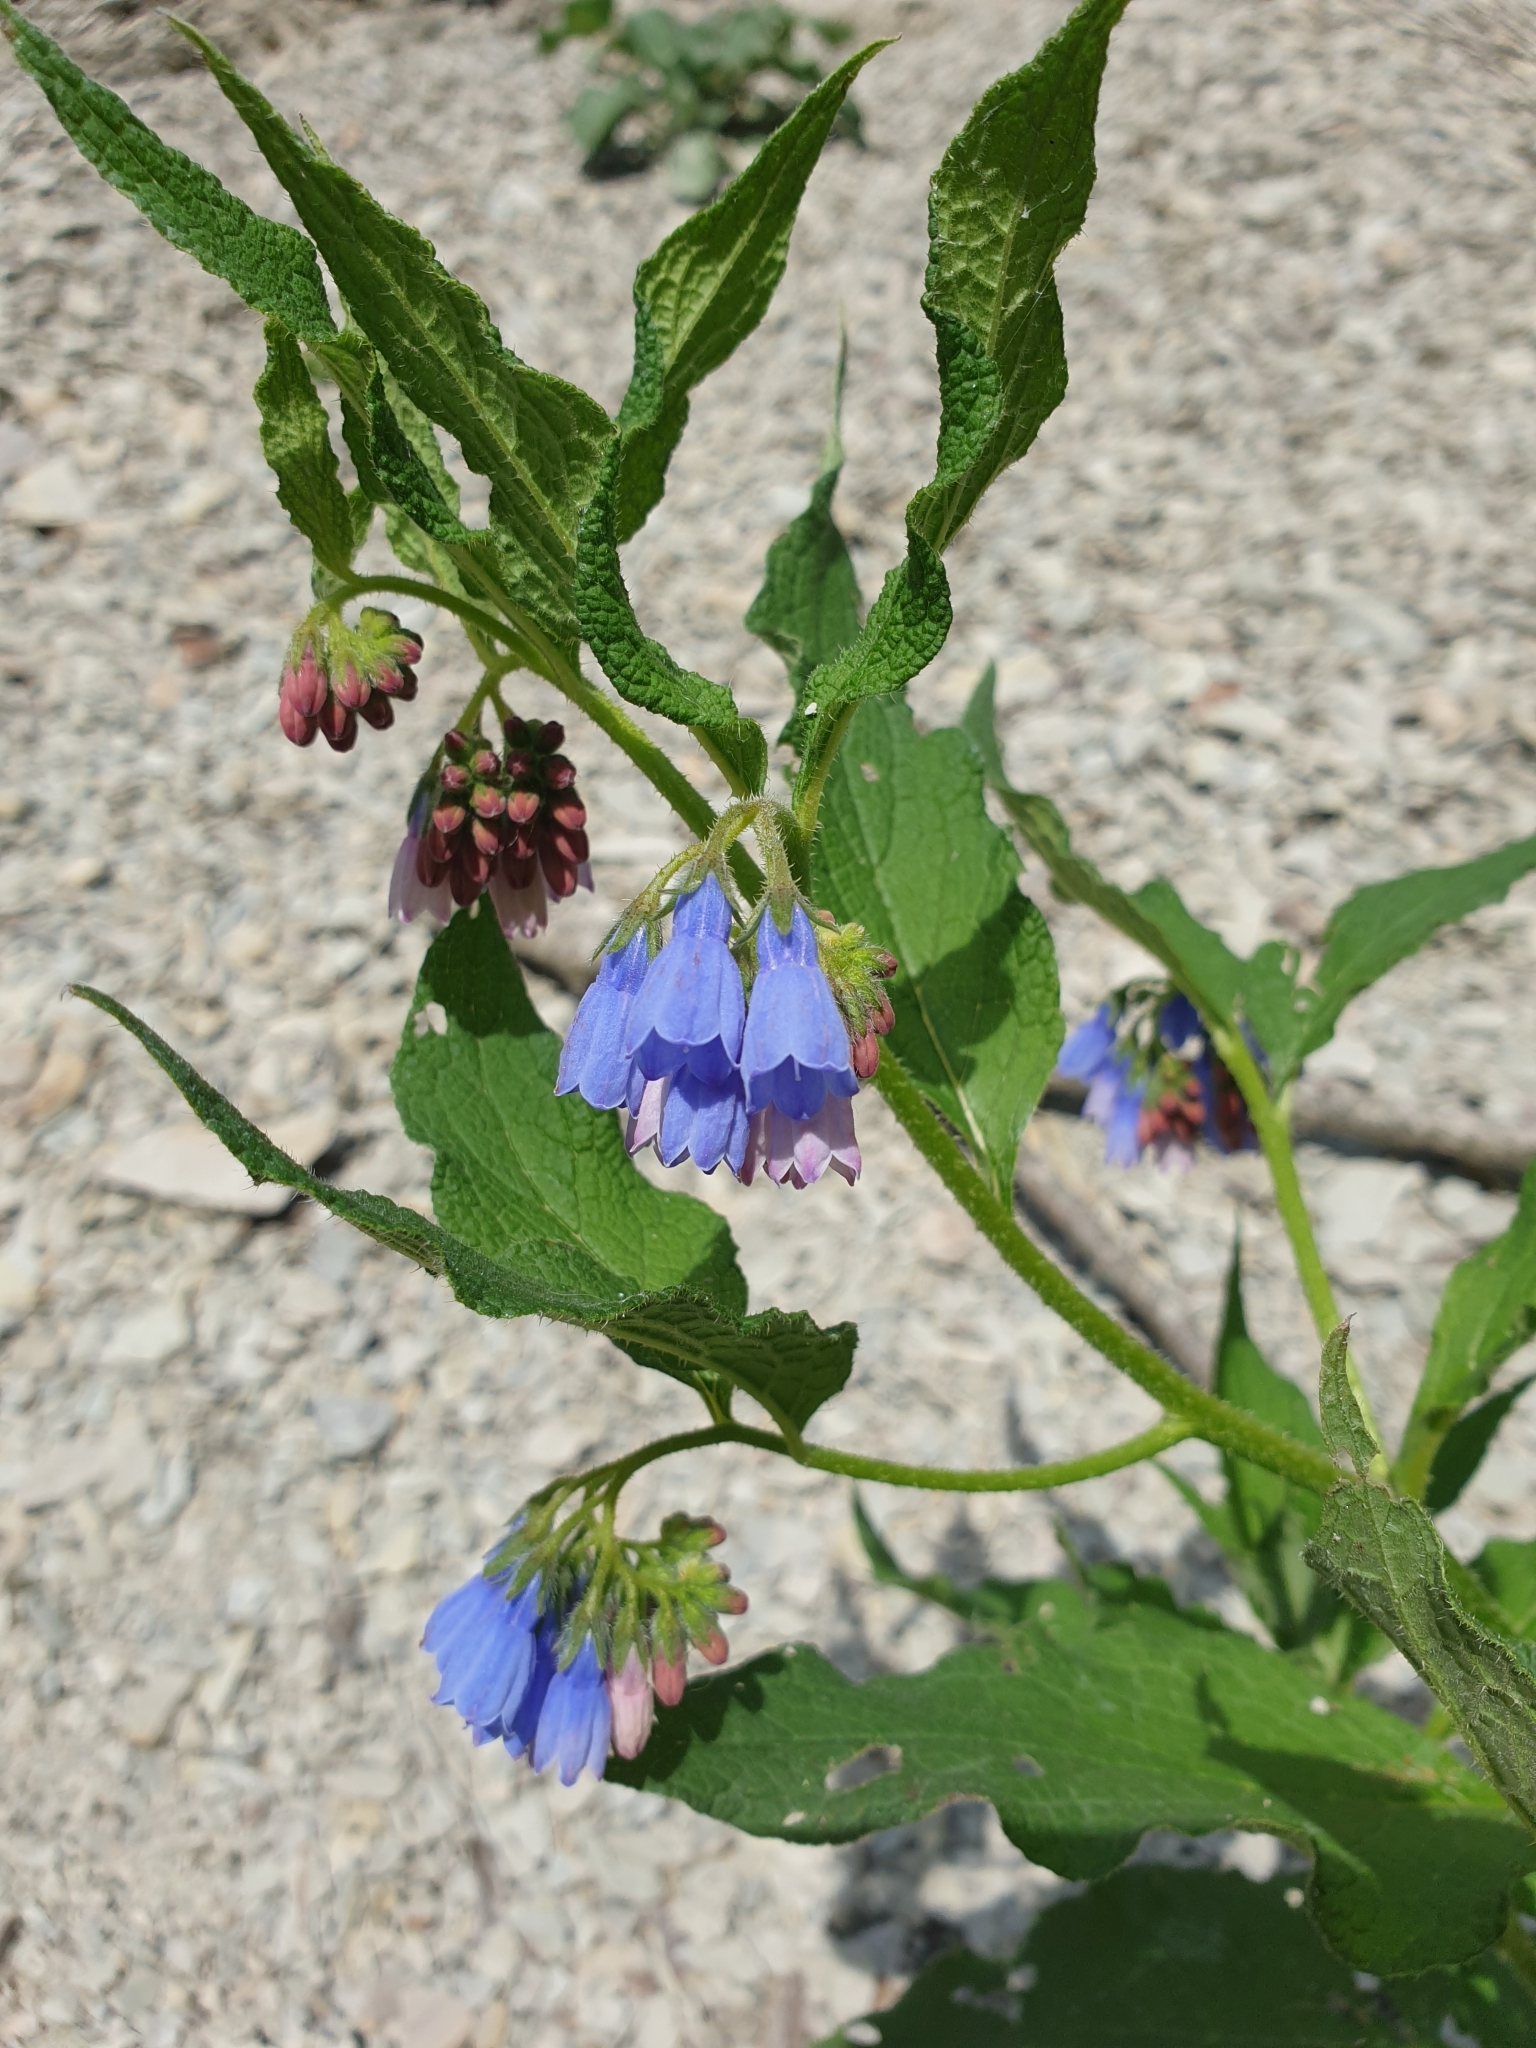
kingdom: Plantae
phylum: Tracheophyta
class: Magnoliopsida
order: Boraginales
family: Boraginaceae
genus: Symphytum
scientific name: Symphytum asperum
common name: Prickly comfrey
